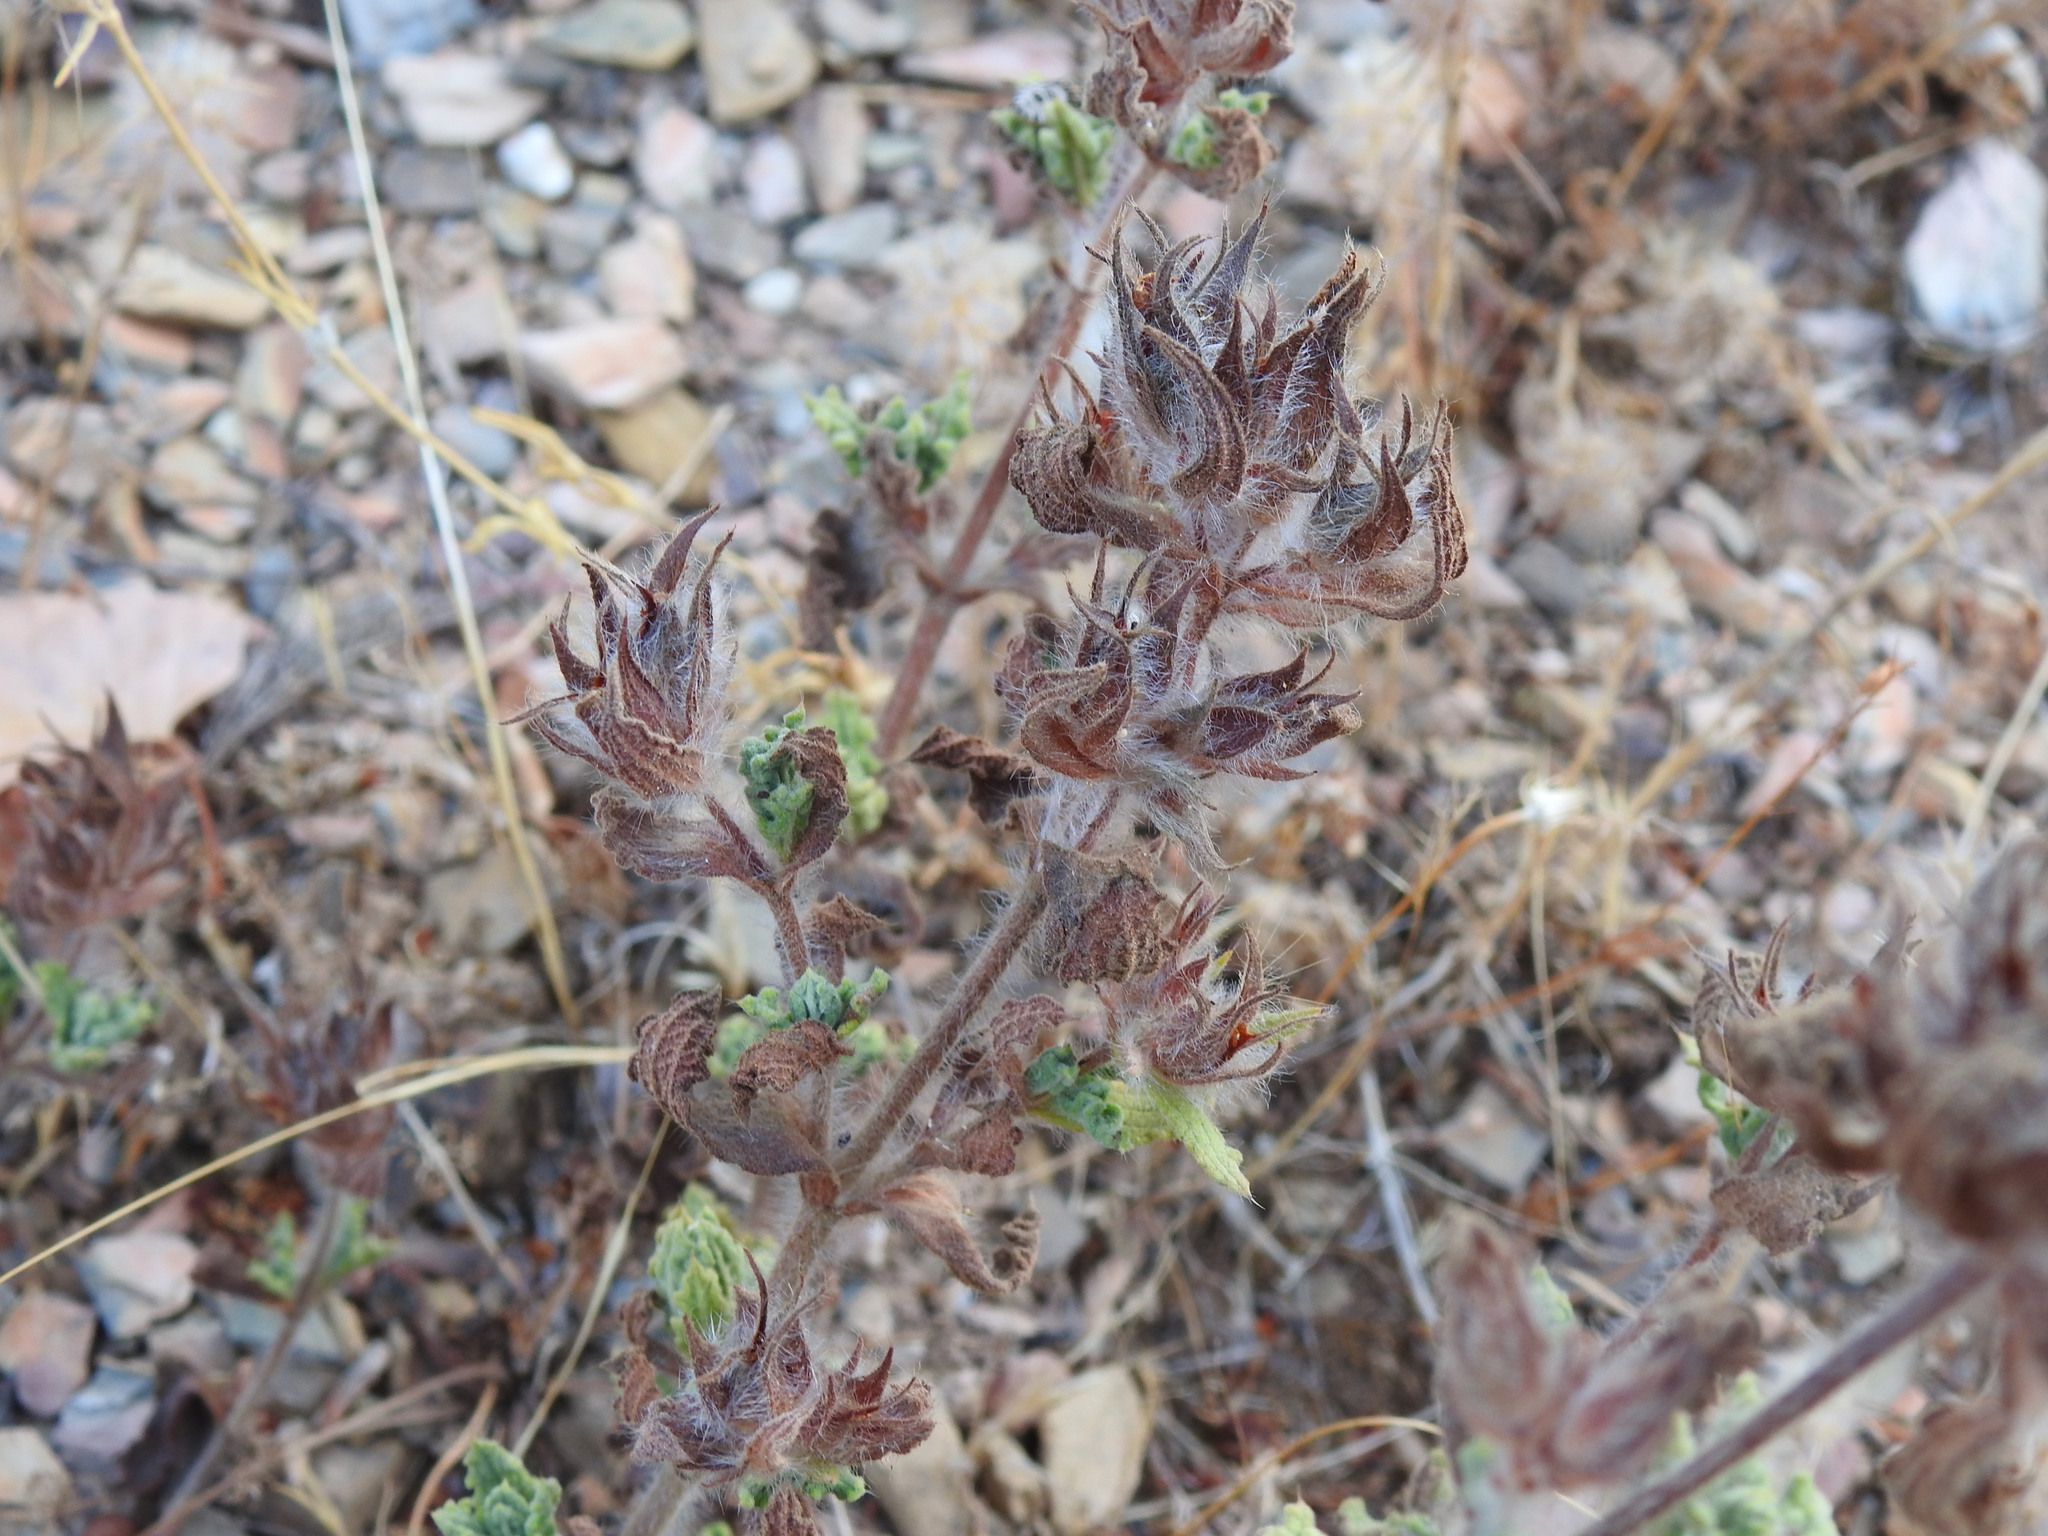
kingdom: Plantae
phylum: Tracheophyta
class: Magnoliopsida
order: Malvales
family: Cistaceae
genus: Cistus
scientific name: Cistus crispus
